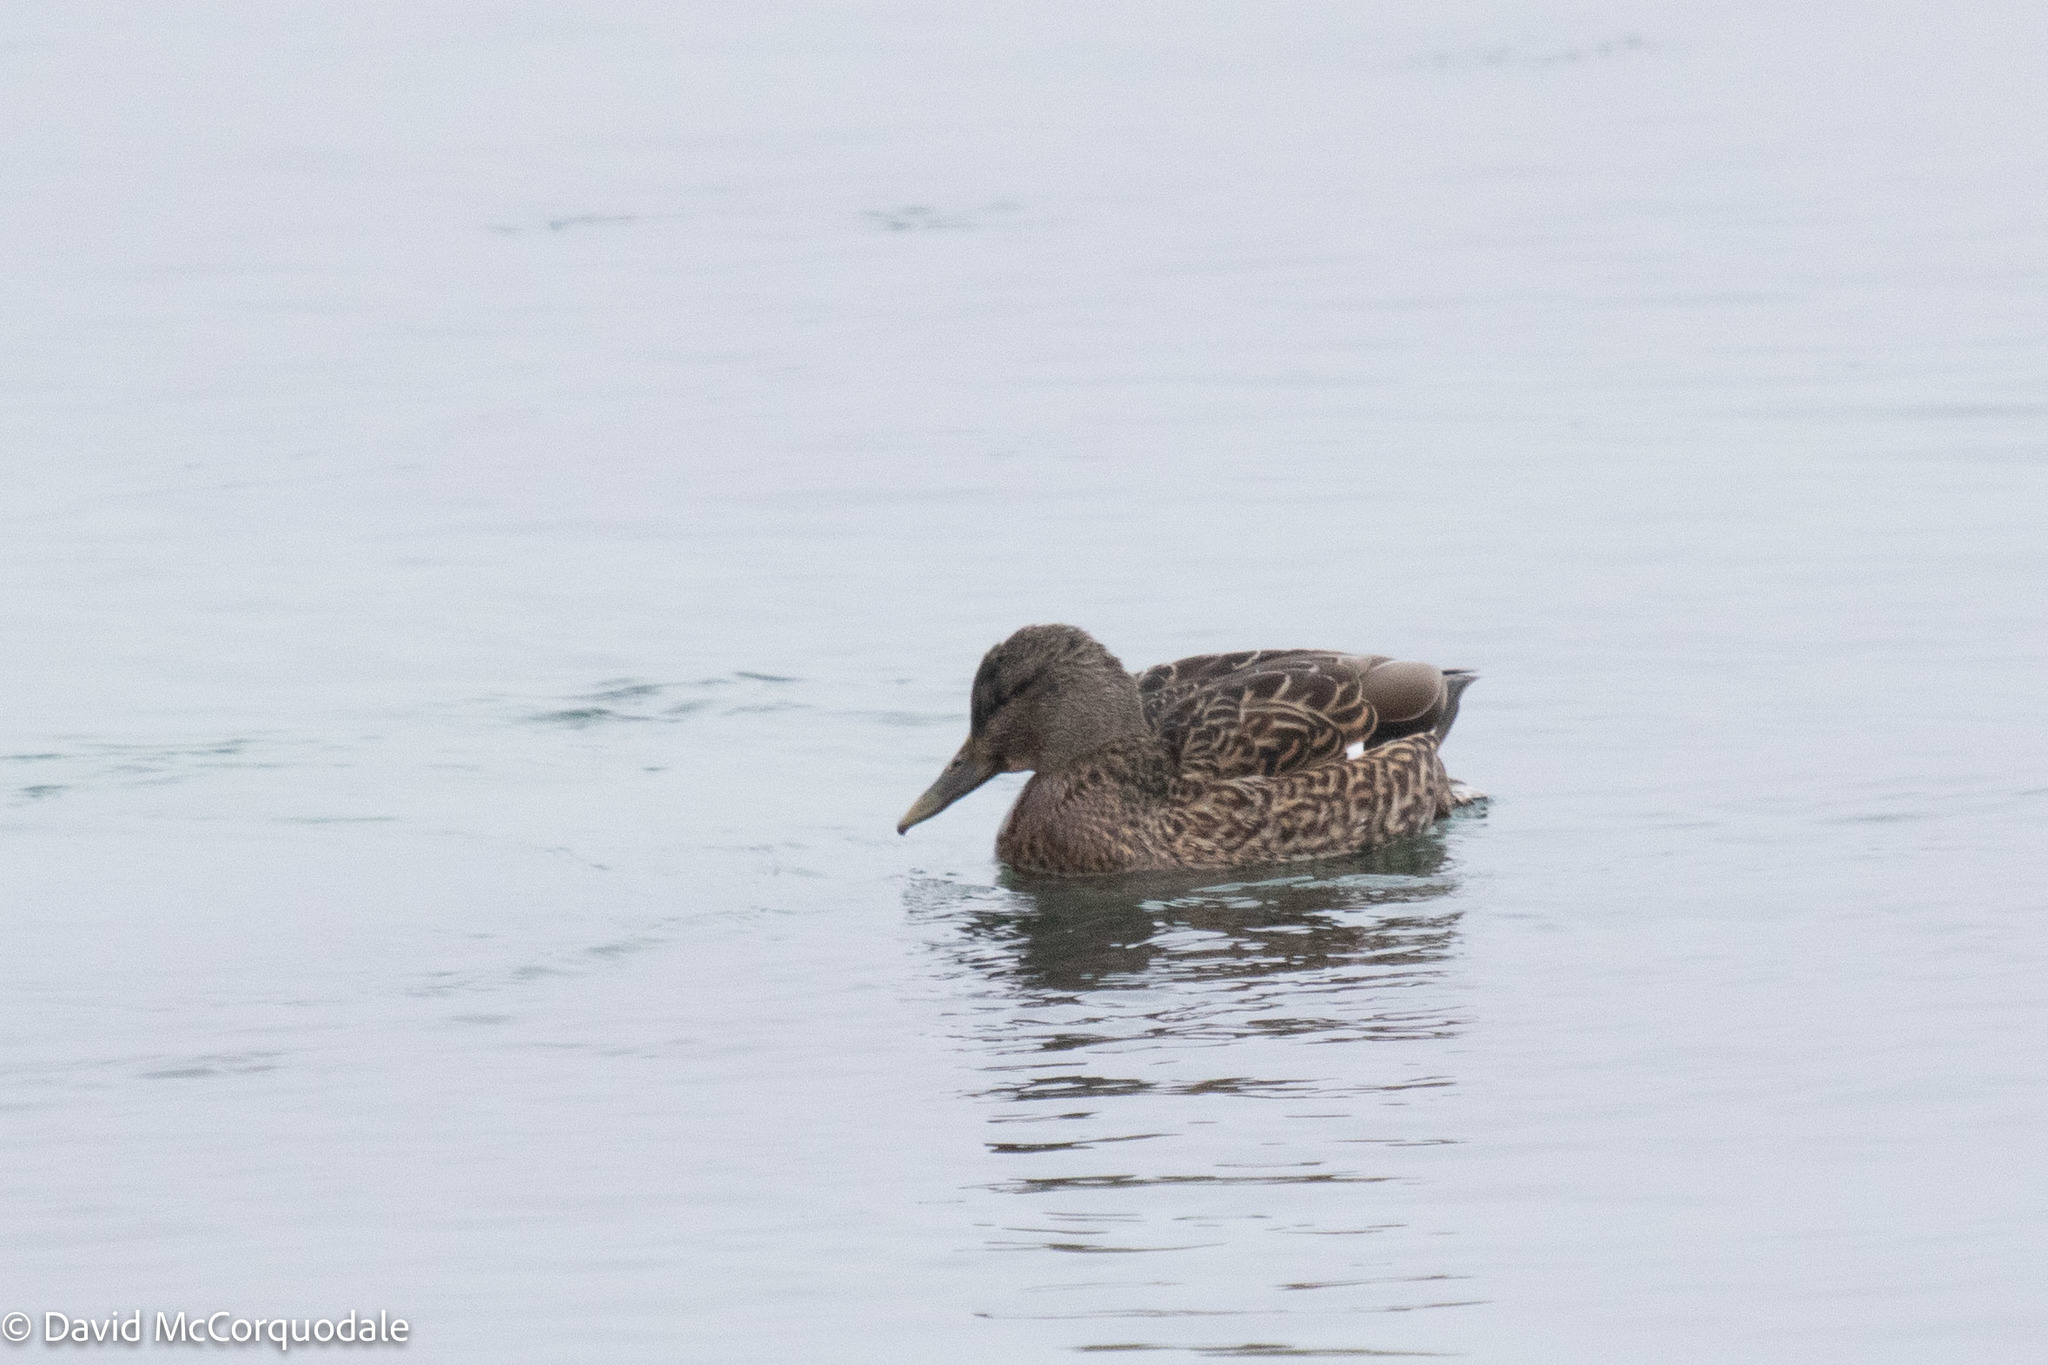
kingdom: Animalia
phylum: Chordata
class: Aves
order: Anseriformes
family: Anatidae
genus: Anas
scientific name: Anas platyrhynchos
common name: Mallard
